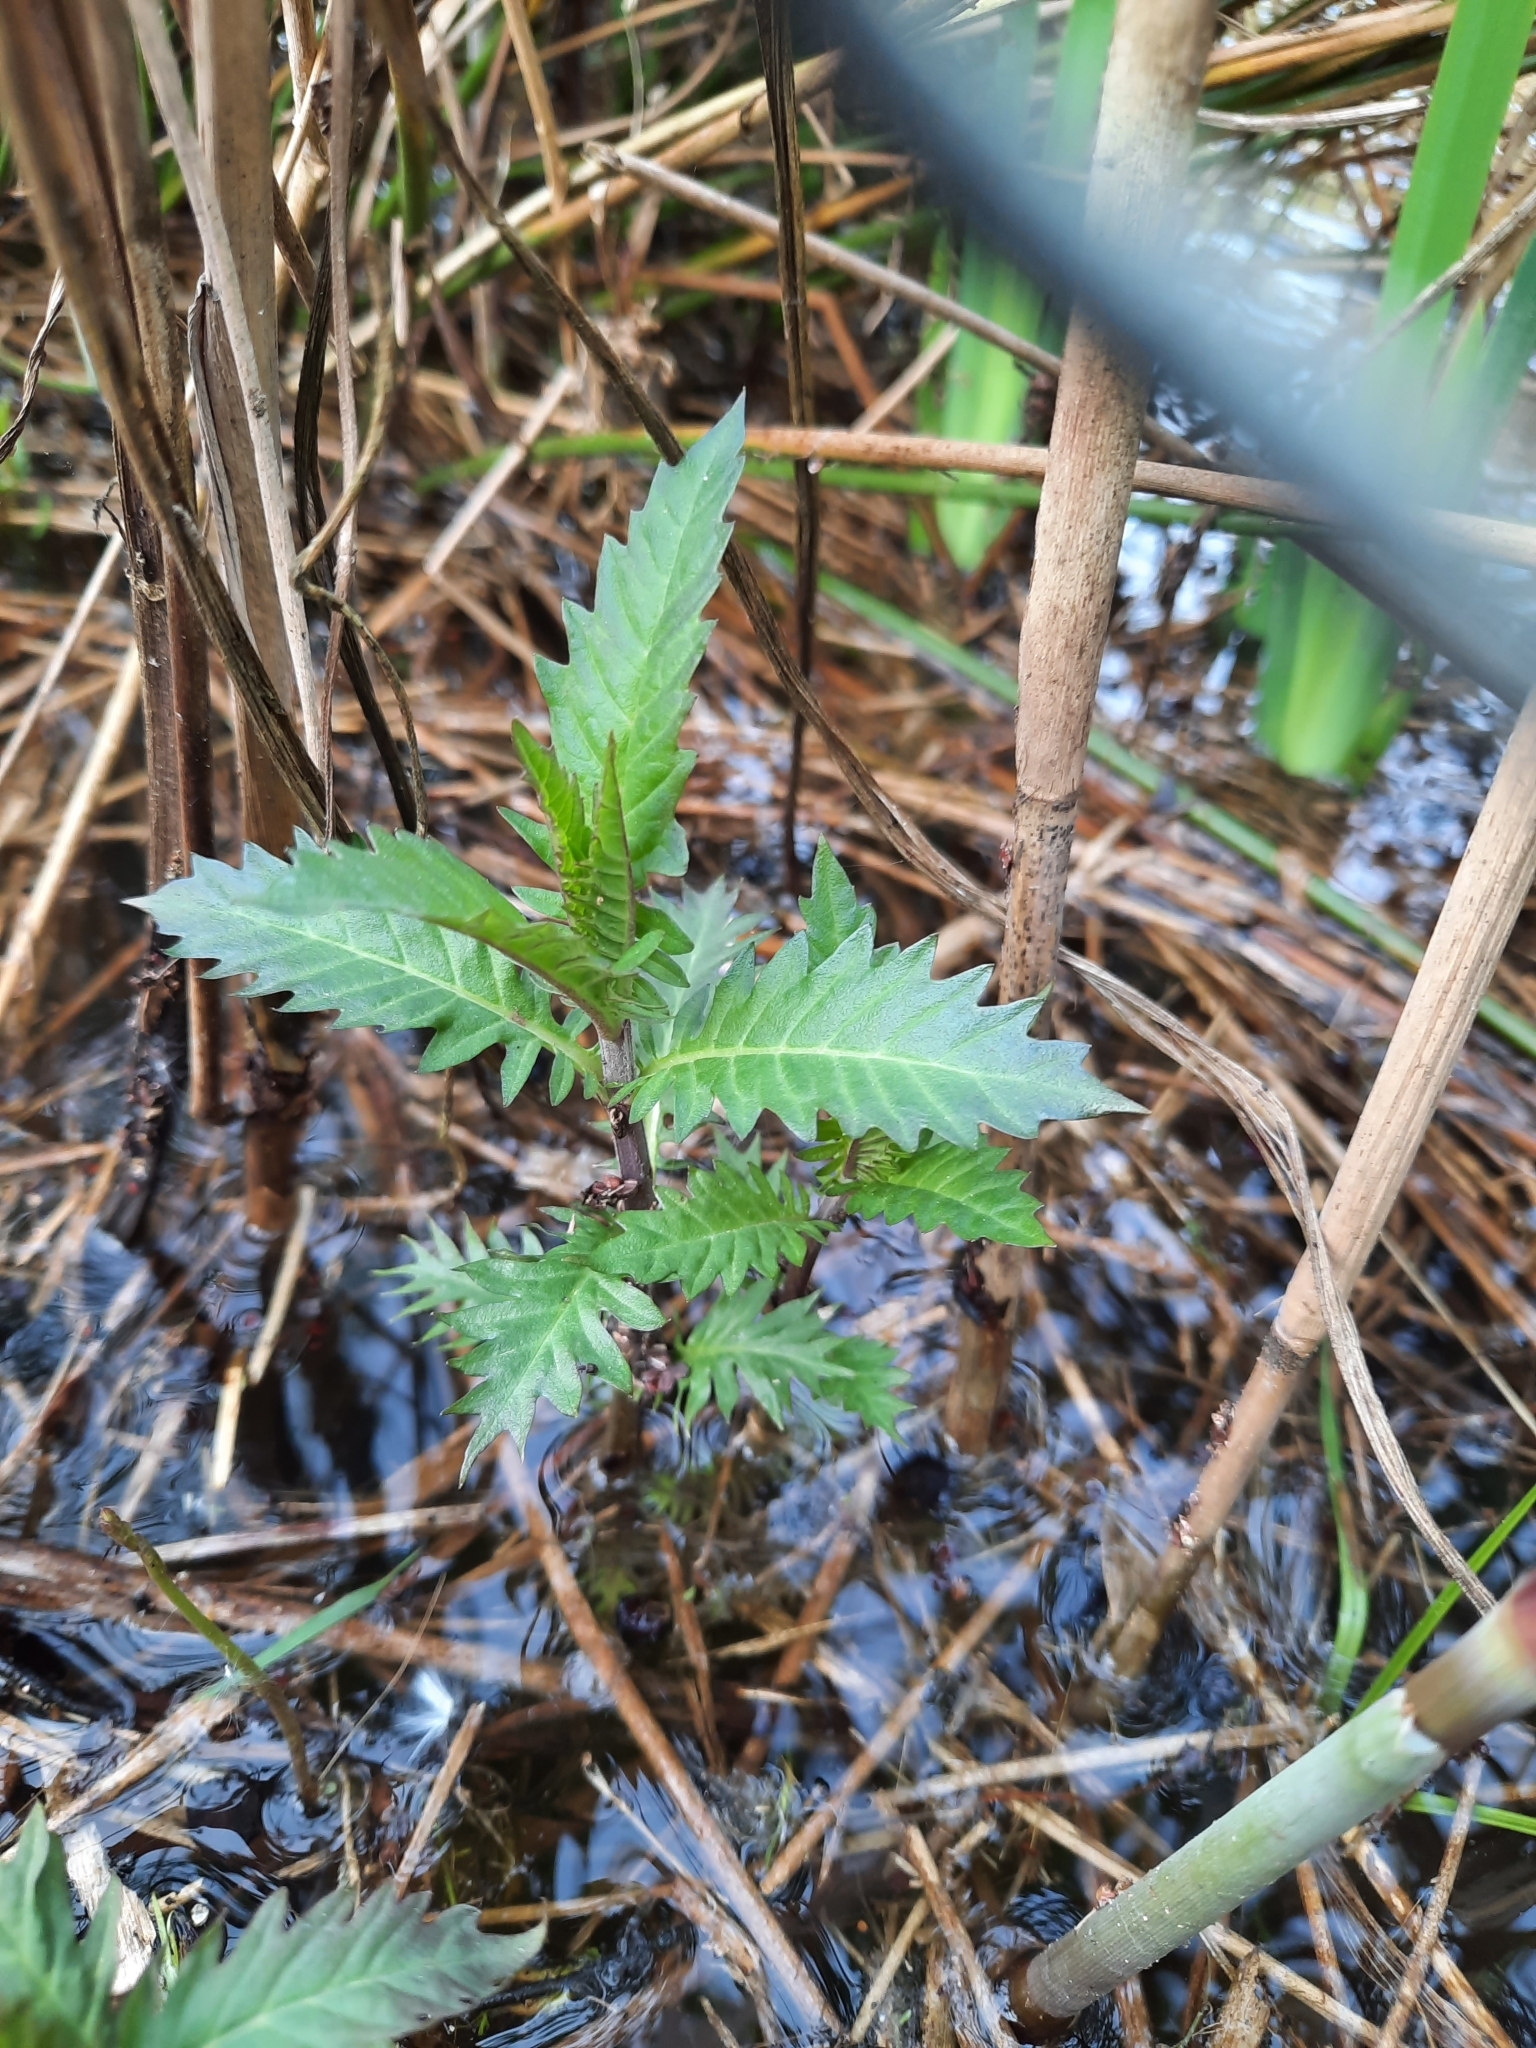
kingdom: Plantae
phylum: Tracheophyta
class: Magnoliopsida
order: Lamiales
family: Lamiaceae
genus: Lycopus
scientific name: Lycopus europaeus
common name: European bugleweed
